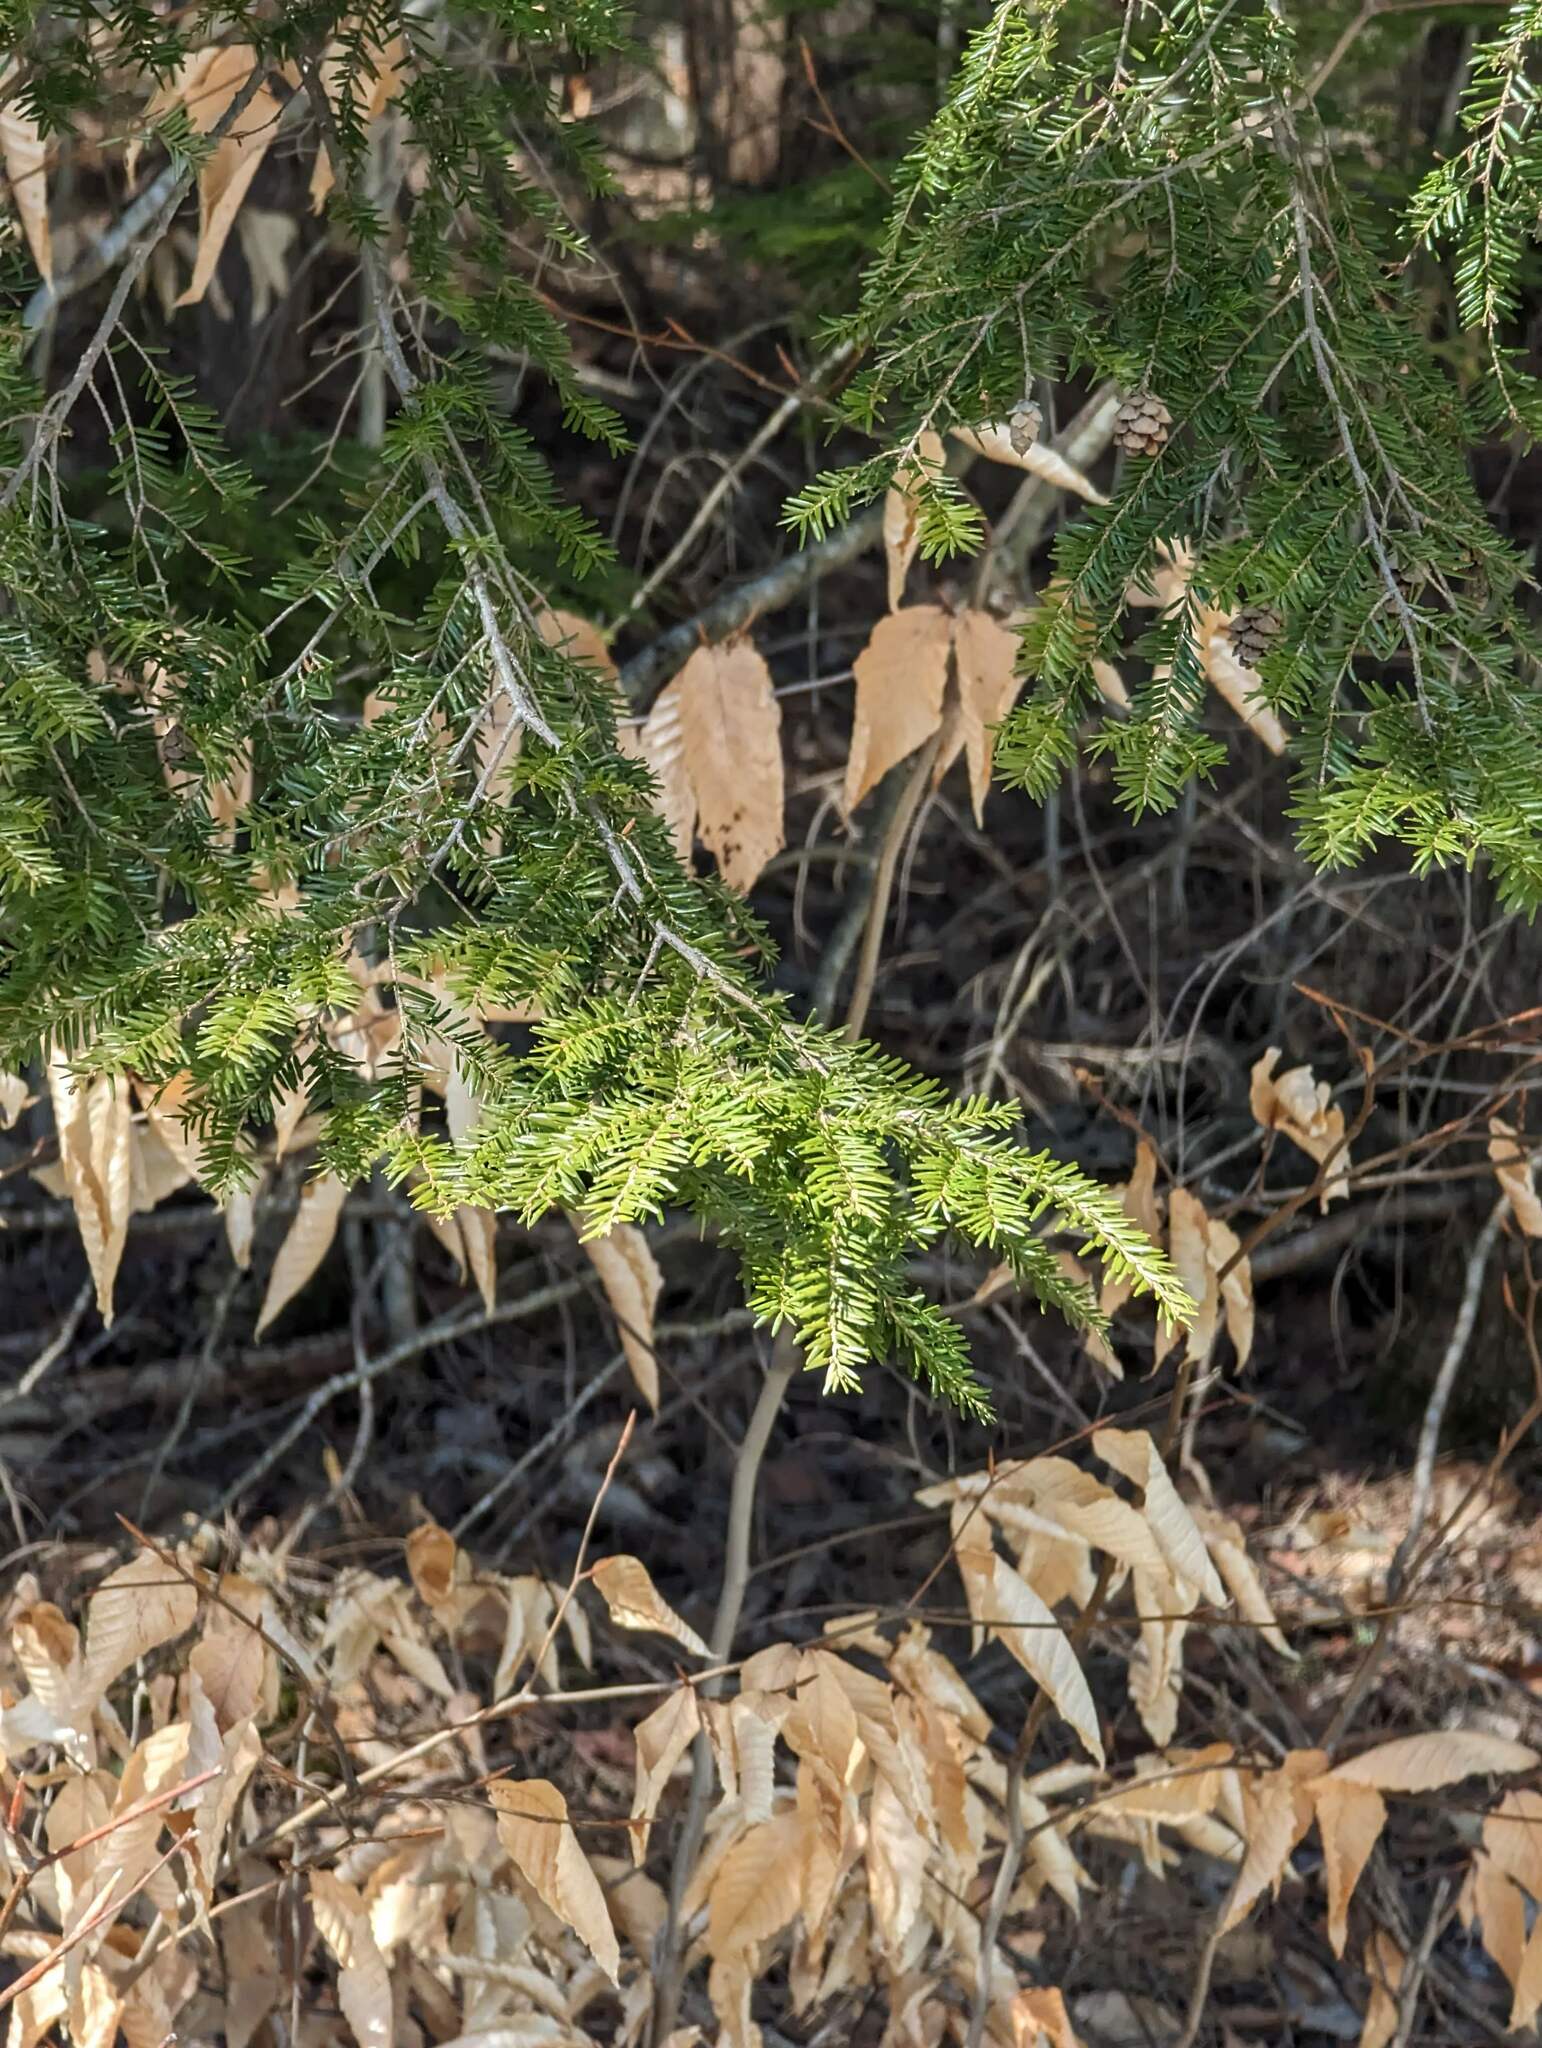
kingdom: Plantae
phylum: Tracheophyta
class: Pinopsida
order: Pinales
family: Pinaceae
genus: Tsuga
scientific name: Tsuga canadensis
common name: Eastern hemlock
